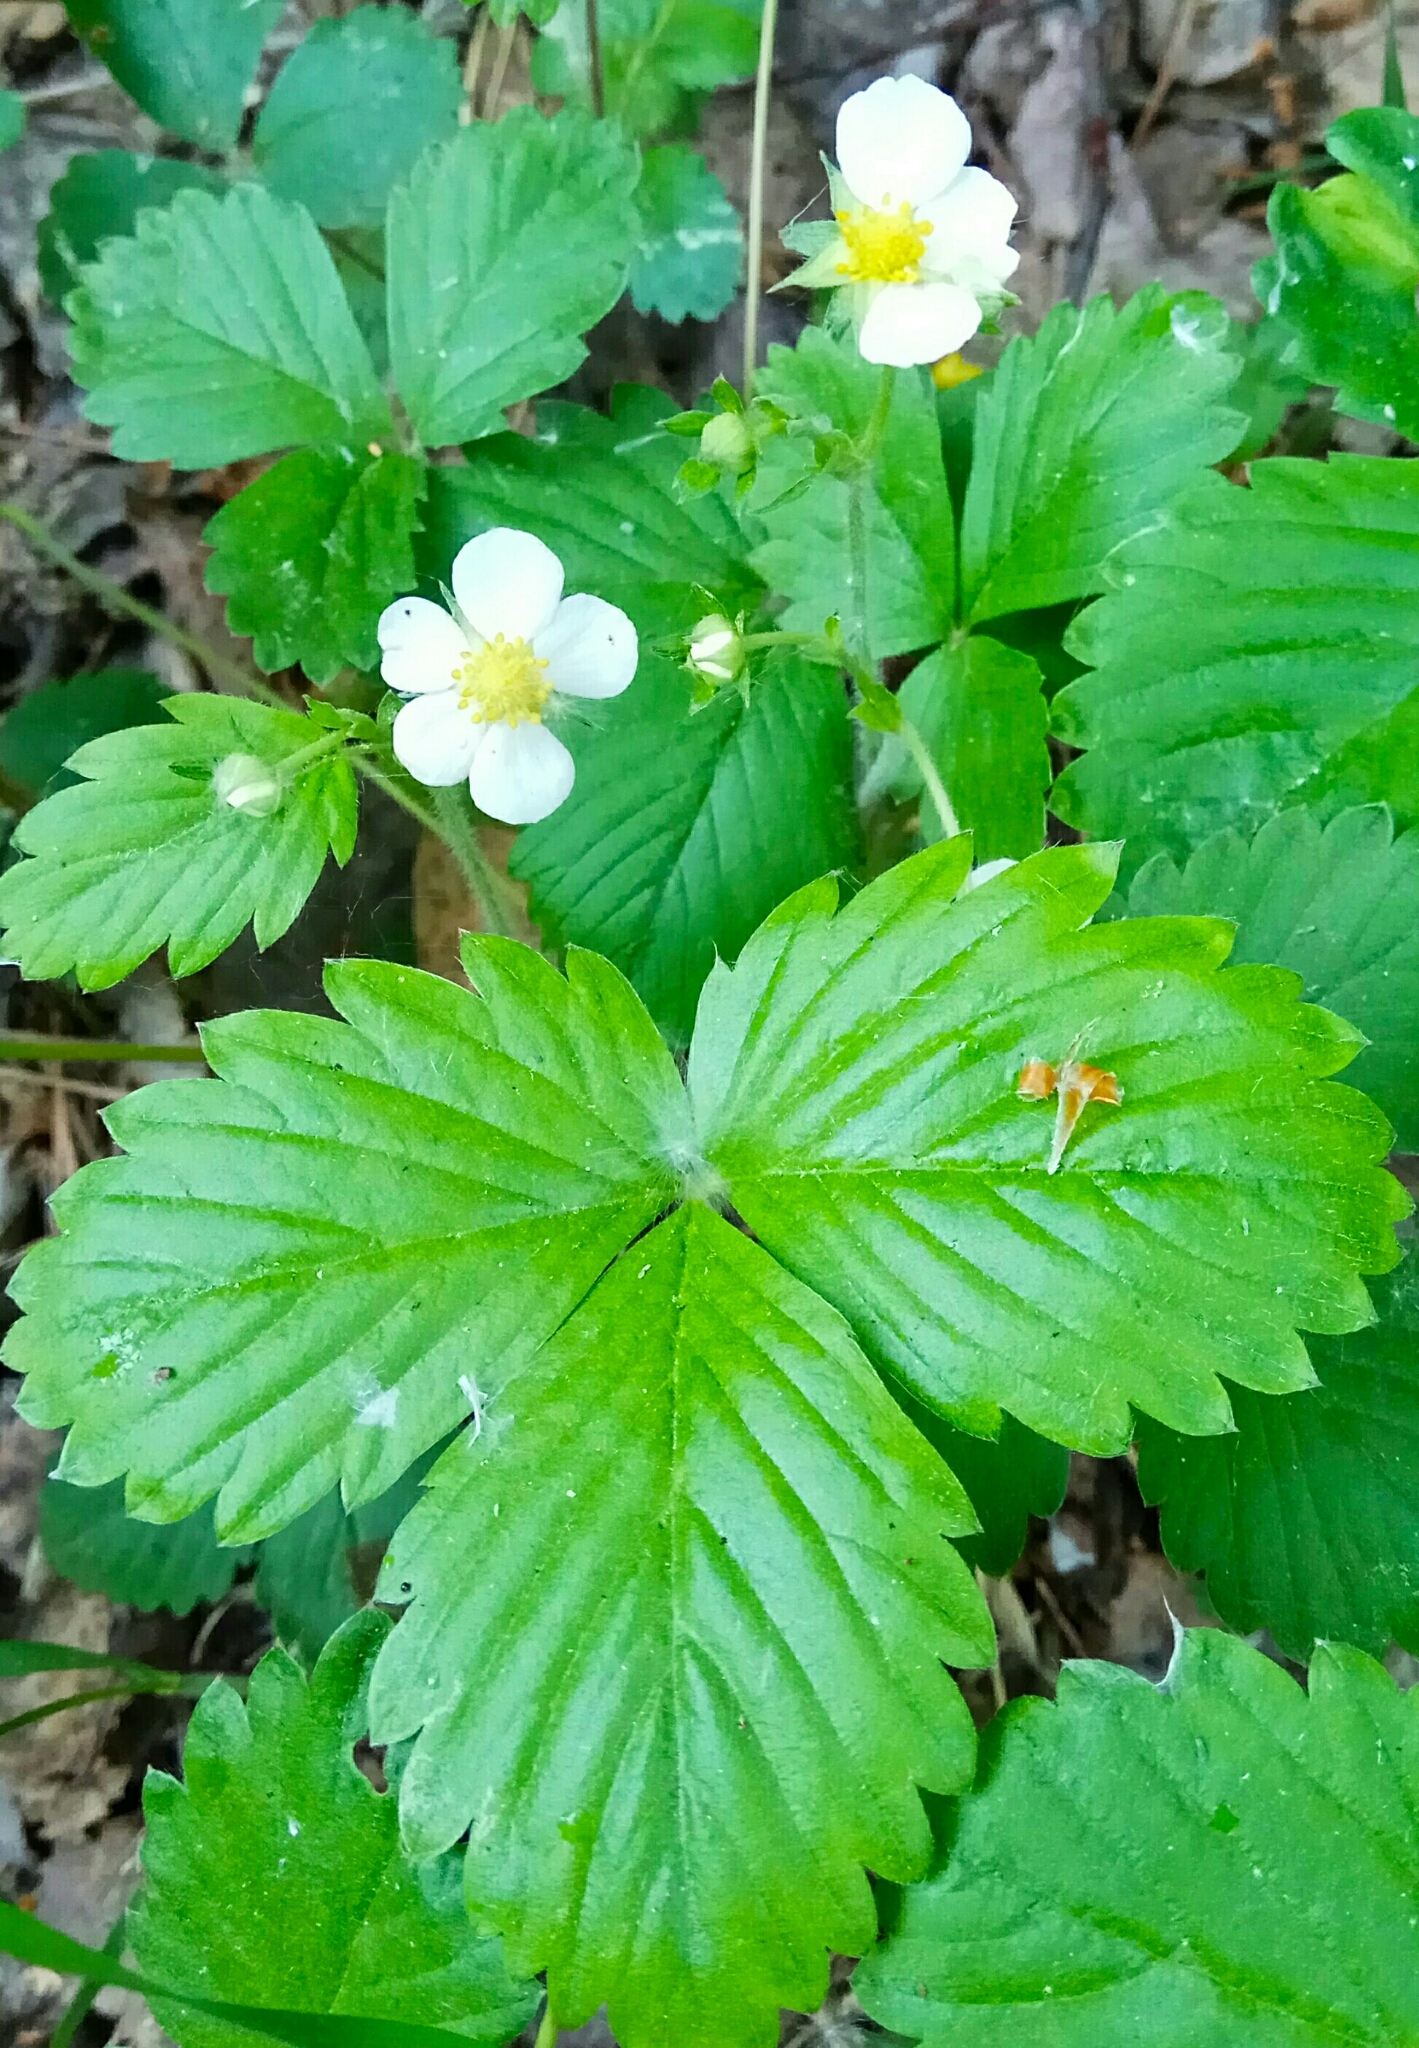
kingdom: Plantae
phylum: Tracheophyta
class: Magnoliopsida
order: Rosales
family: Rosaceae
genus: Fragaria
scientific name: Fragaria vesca
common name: Wild strawberry
